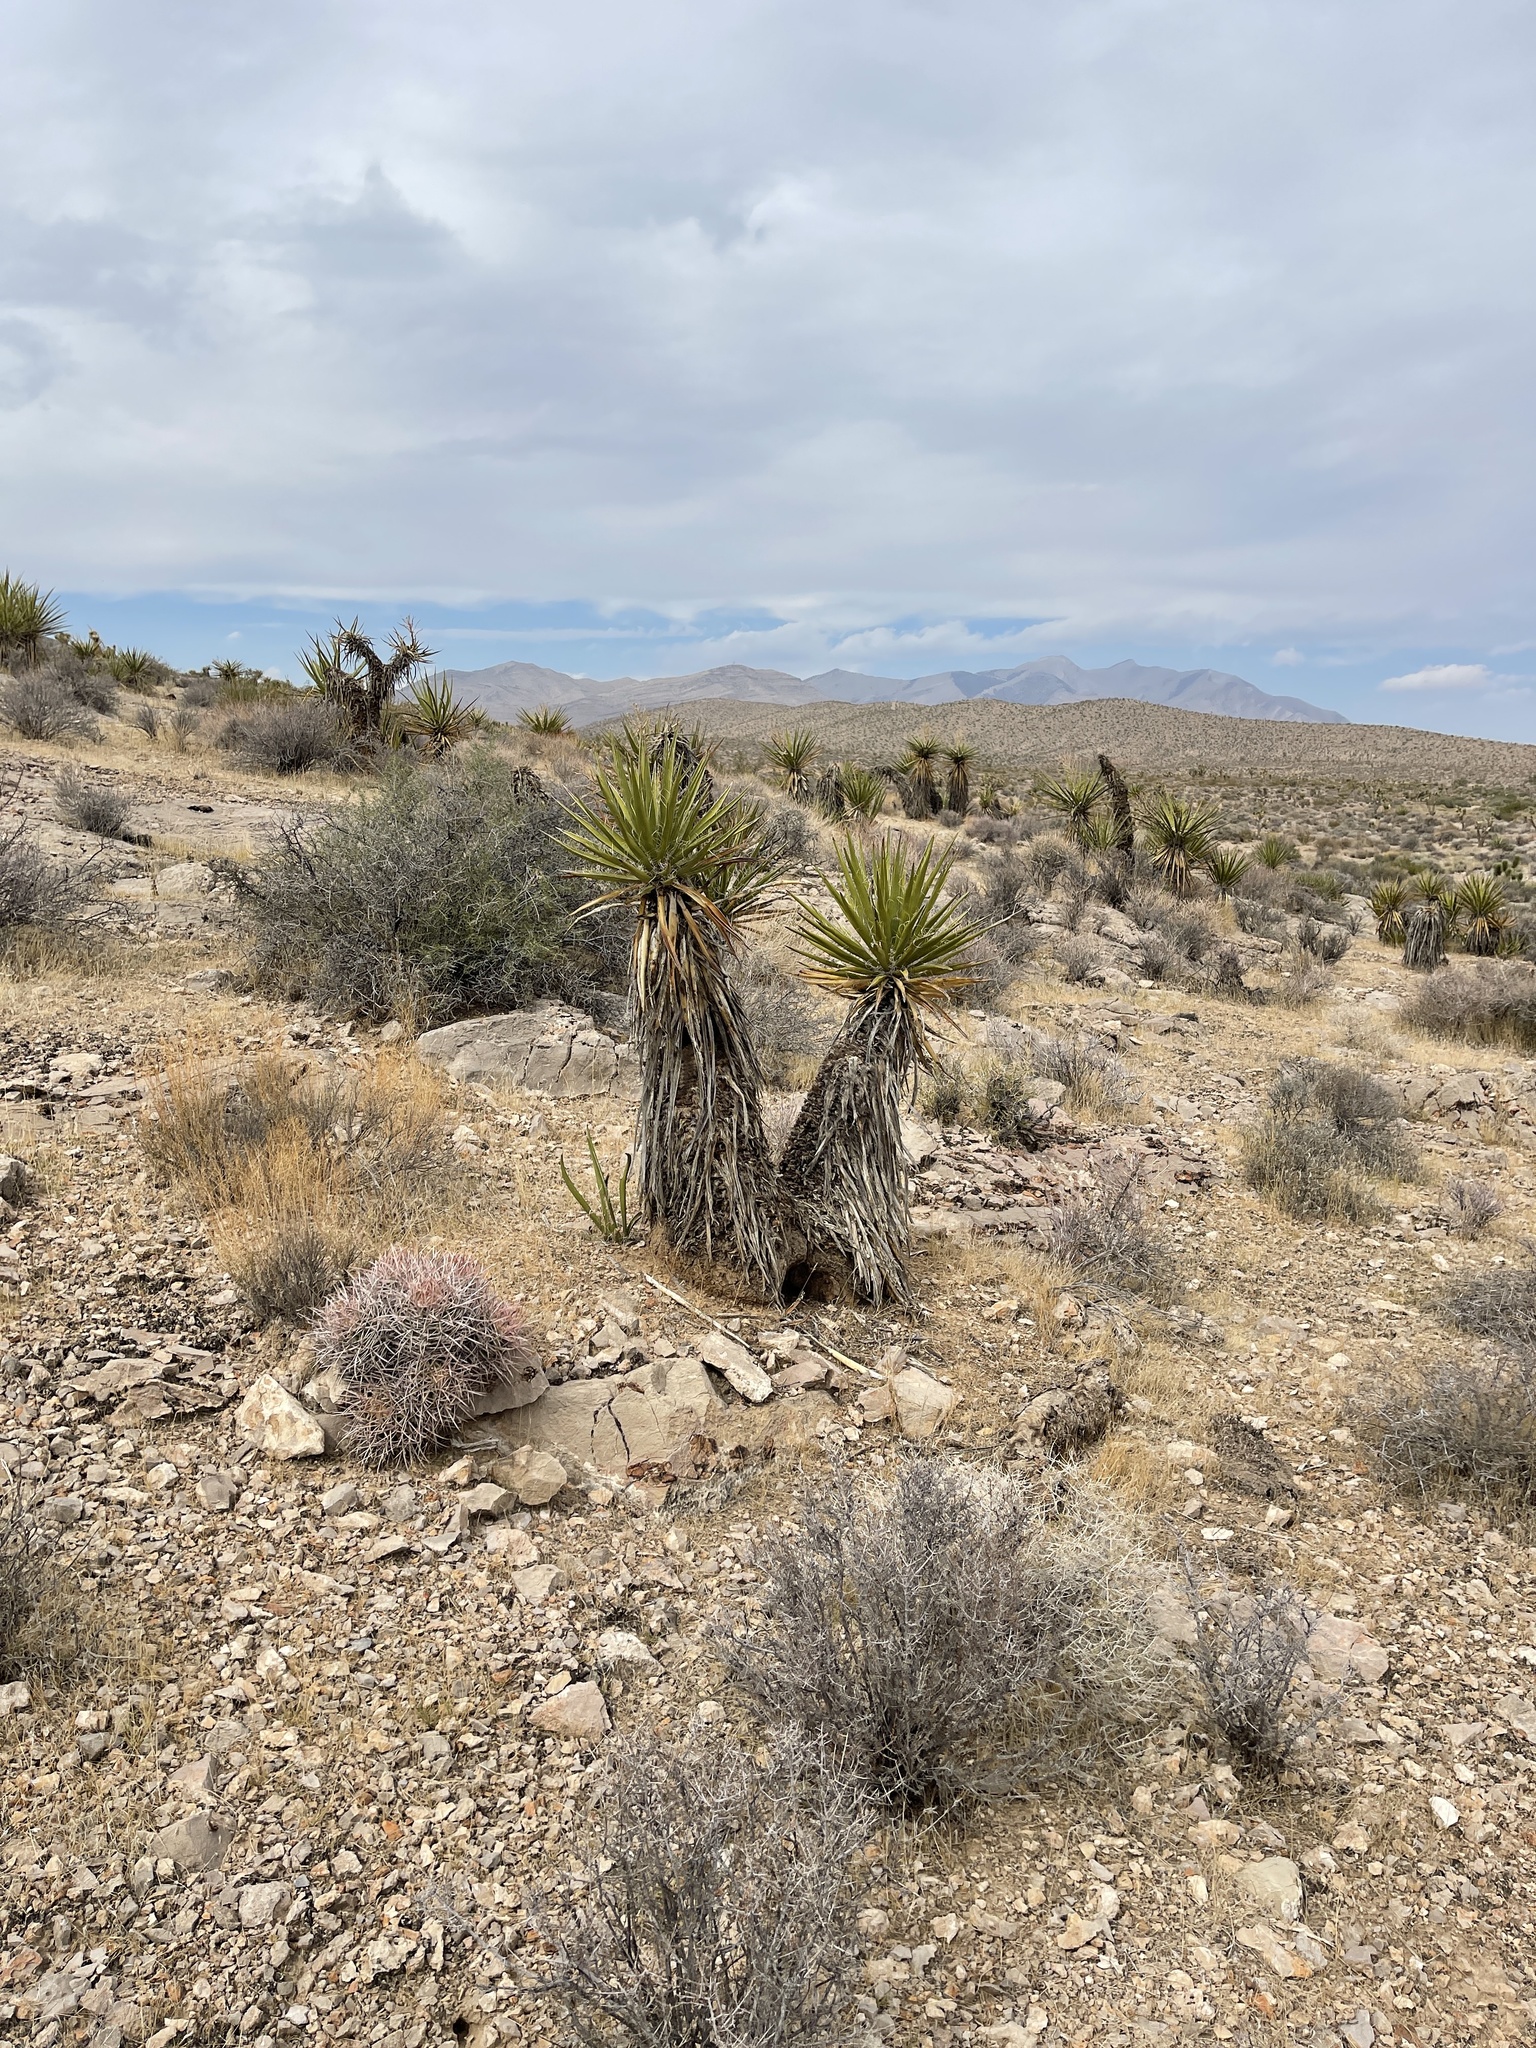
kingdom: Plantae
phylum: Tracheophyta
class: Liliopsida
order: Asparagales
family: Asparagaceae
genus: Yucca
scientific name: Yucca schidigera
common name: Mojave yucca
